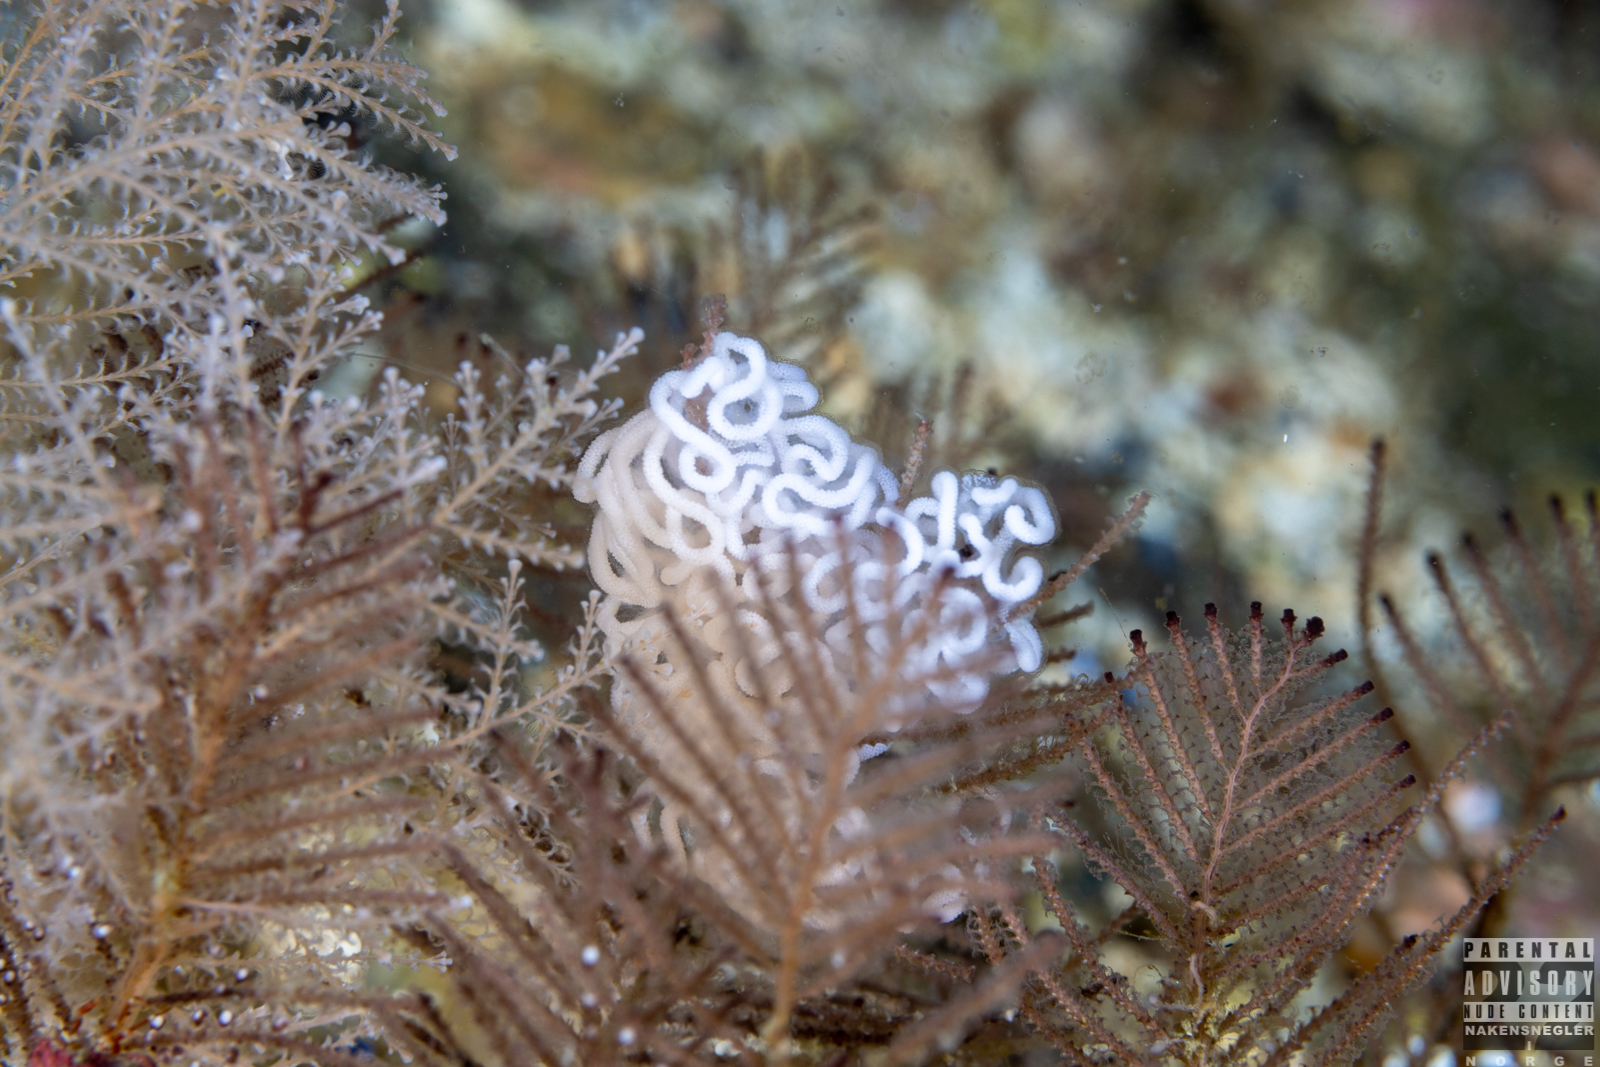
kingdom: Animalia
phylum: Mollusca
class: Gastropoda
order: Nudibranchia
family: Dendronotidae
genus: Dendronotus
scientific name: Dendronotus yrjargul
